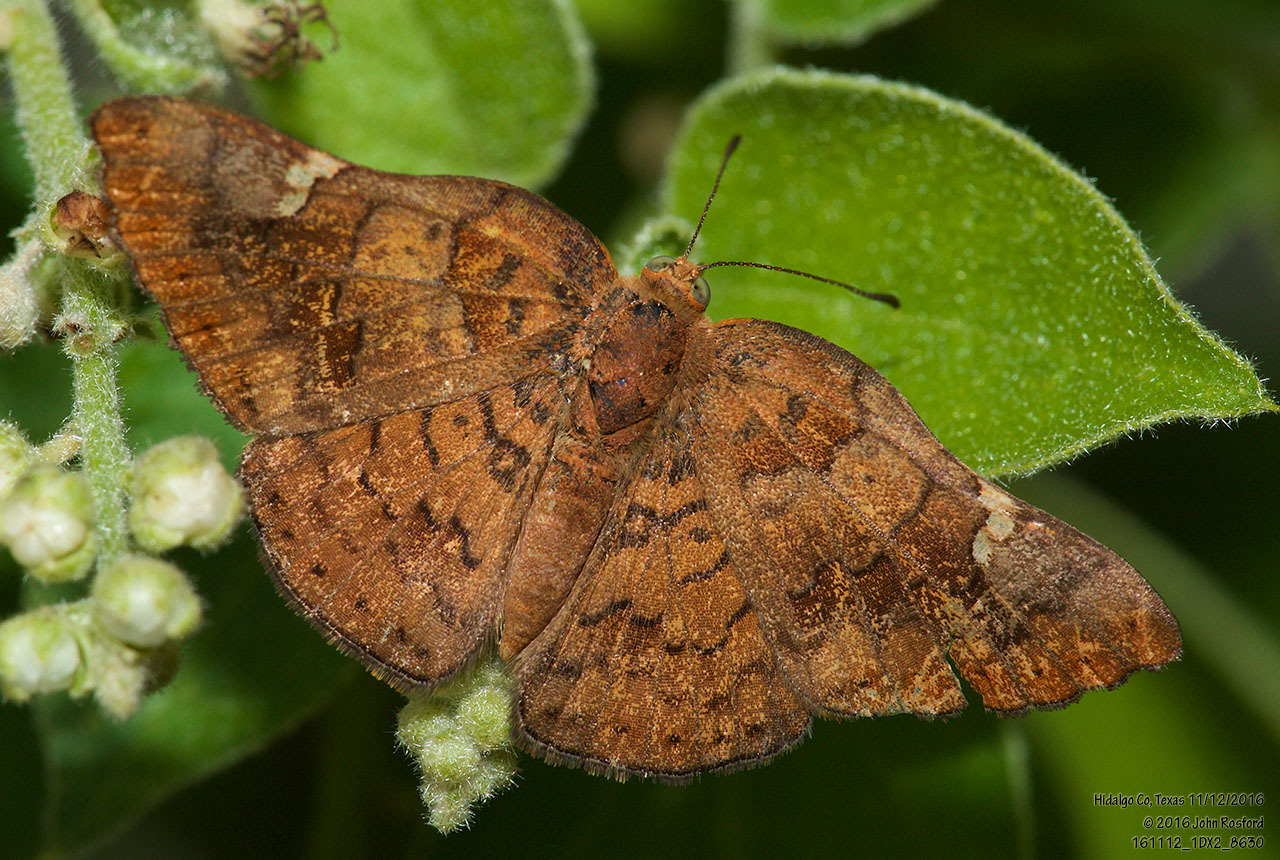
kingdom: Animalia
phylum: Arthropoda
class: Insecta
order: Lepidoptera
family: Riodinidae
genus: Curvie
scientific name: Curvie emesia
